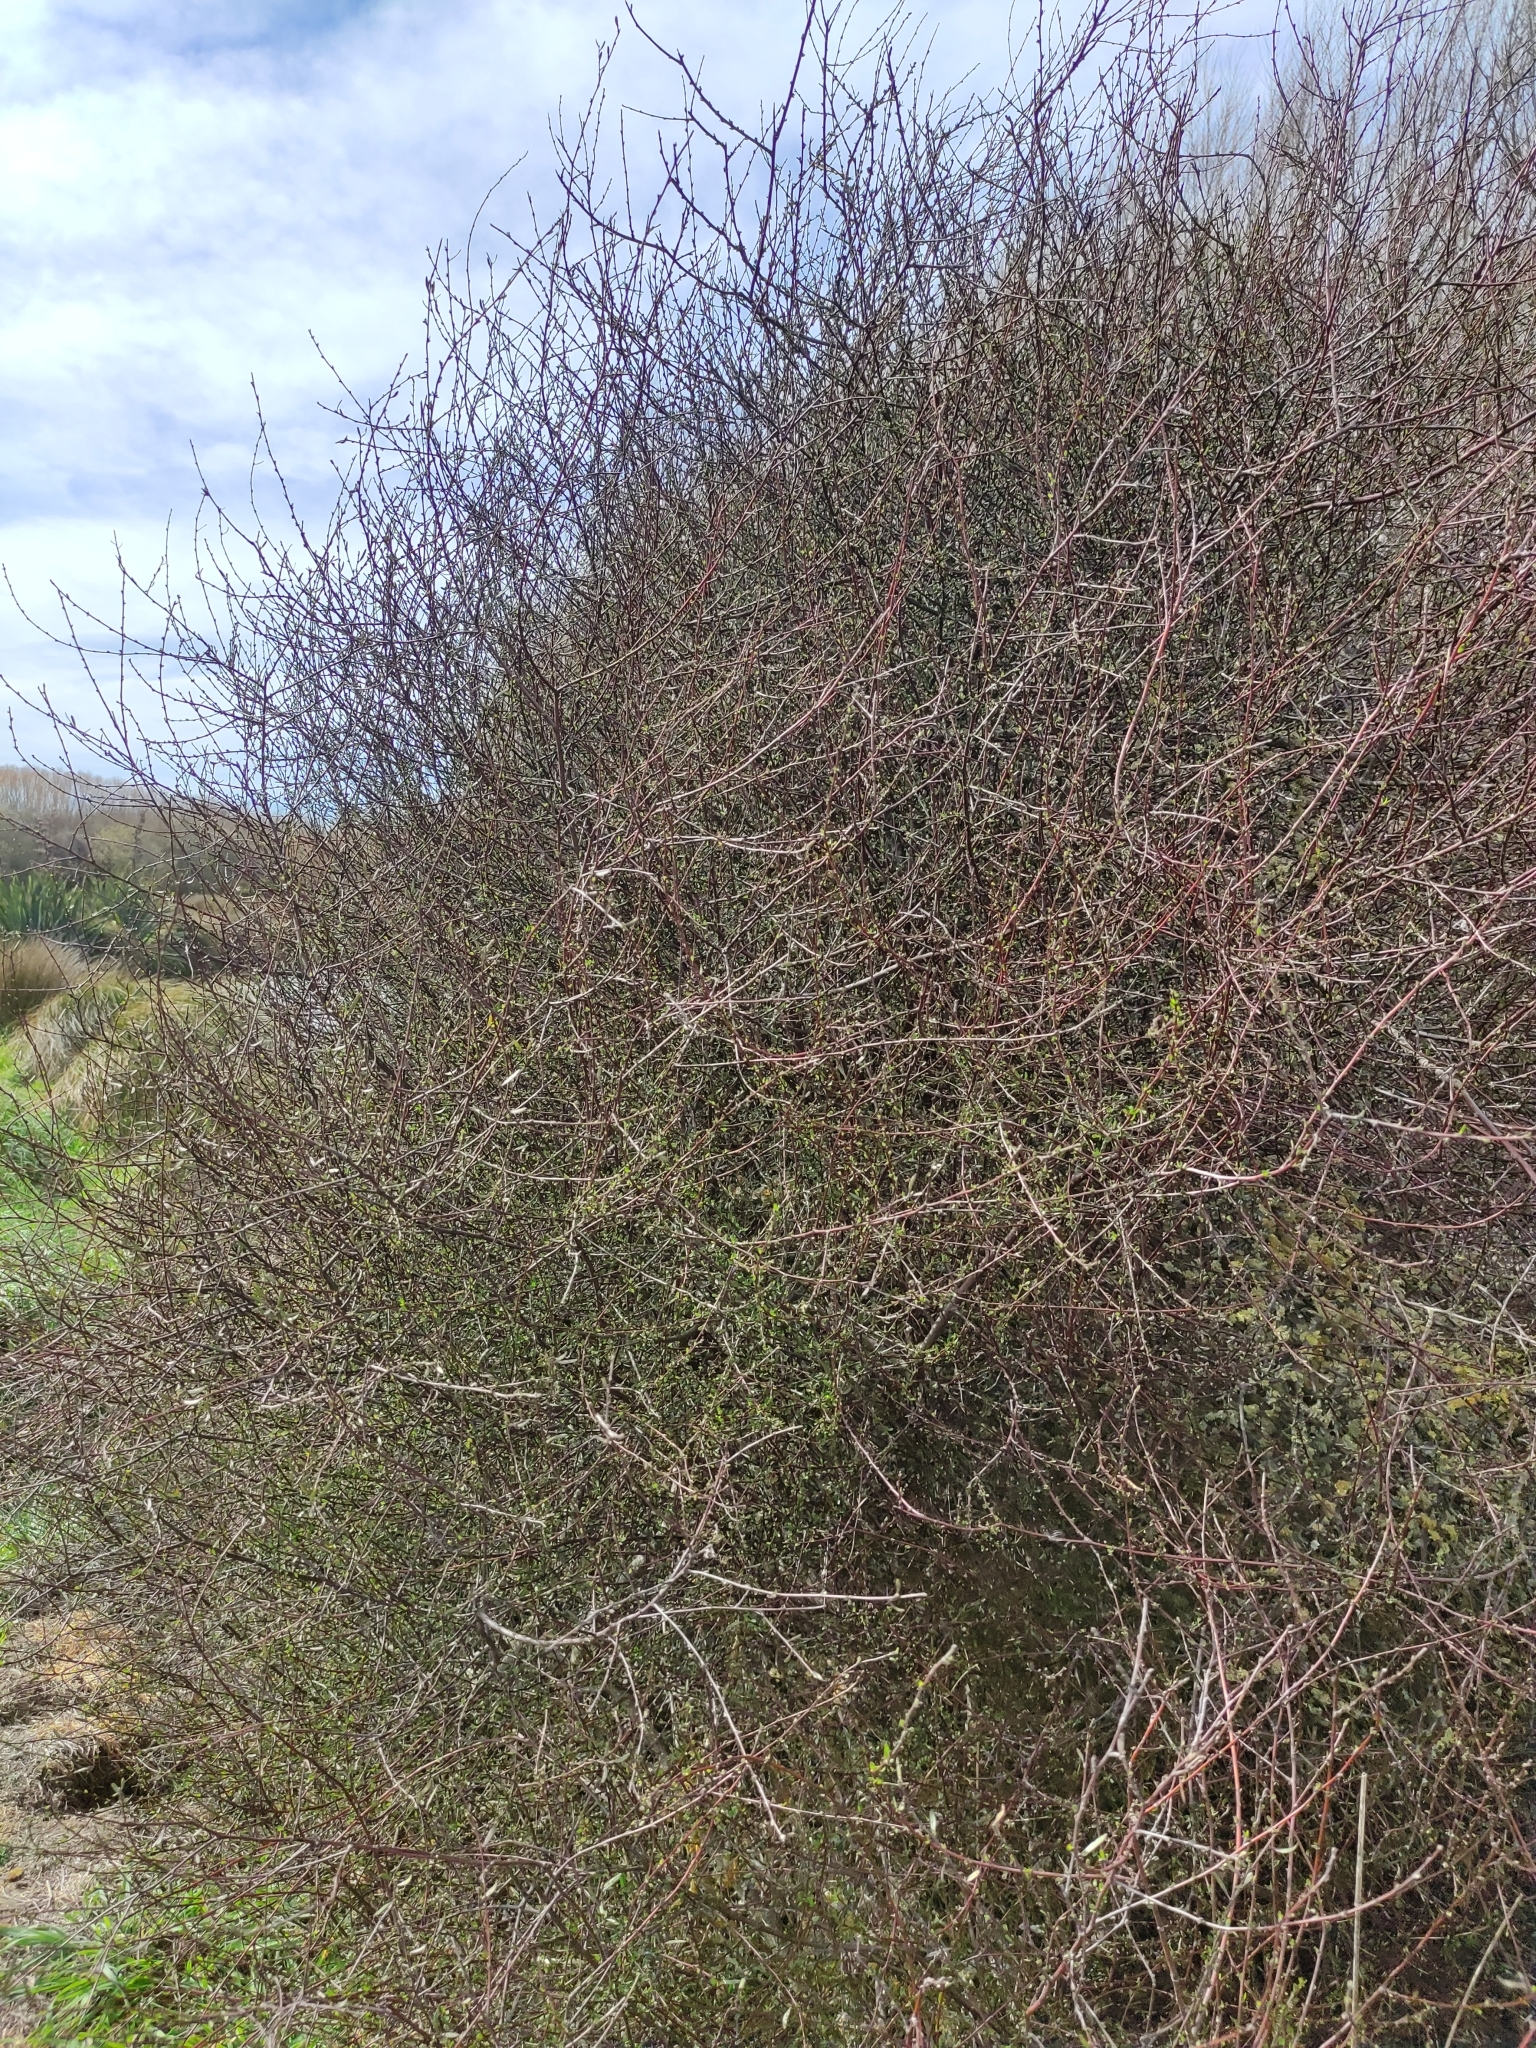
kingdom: Plantae
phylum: Tracheophyta
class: Magnoliopsida
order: Malvales
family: Malvaceae
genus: Plagianthus
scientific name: Plagianthus divaricatus
